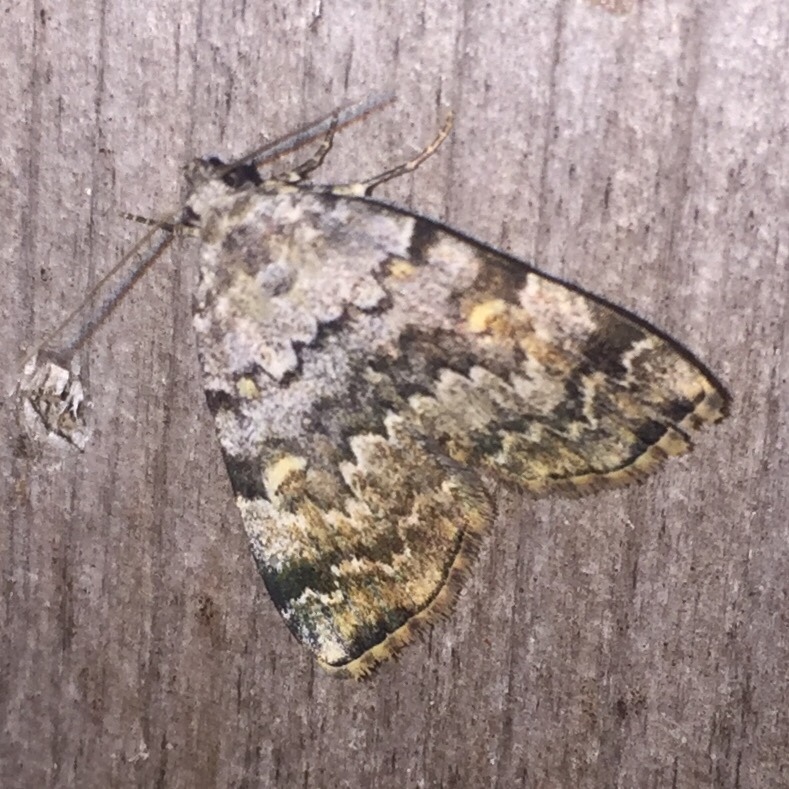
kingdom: Animalia
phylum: Arthropoda
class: Insecta
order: Lepidoptera
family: Erebidae
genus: Idia
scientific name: Idia americalis
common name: American idia moth
